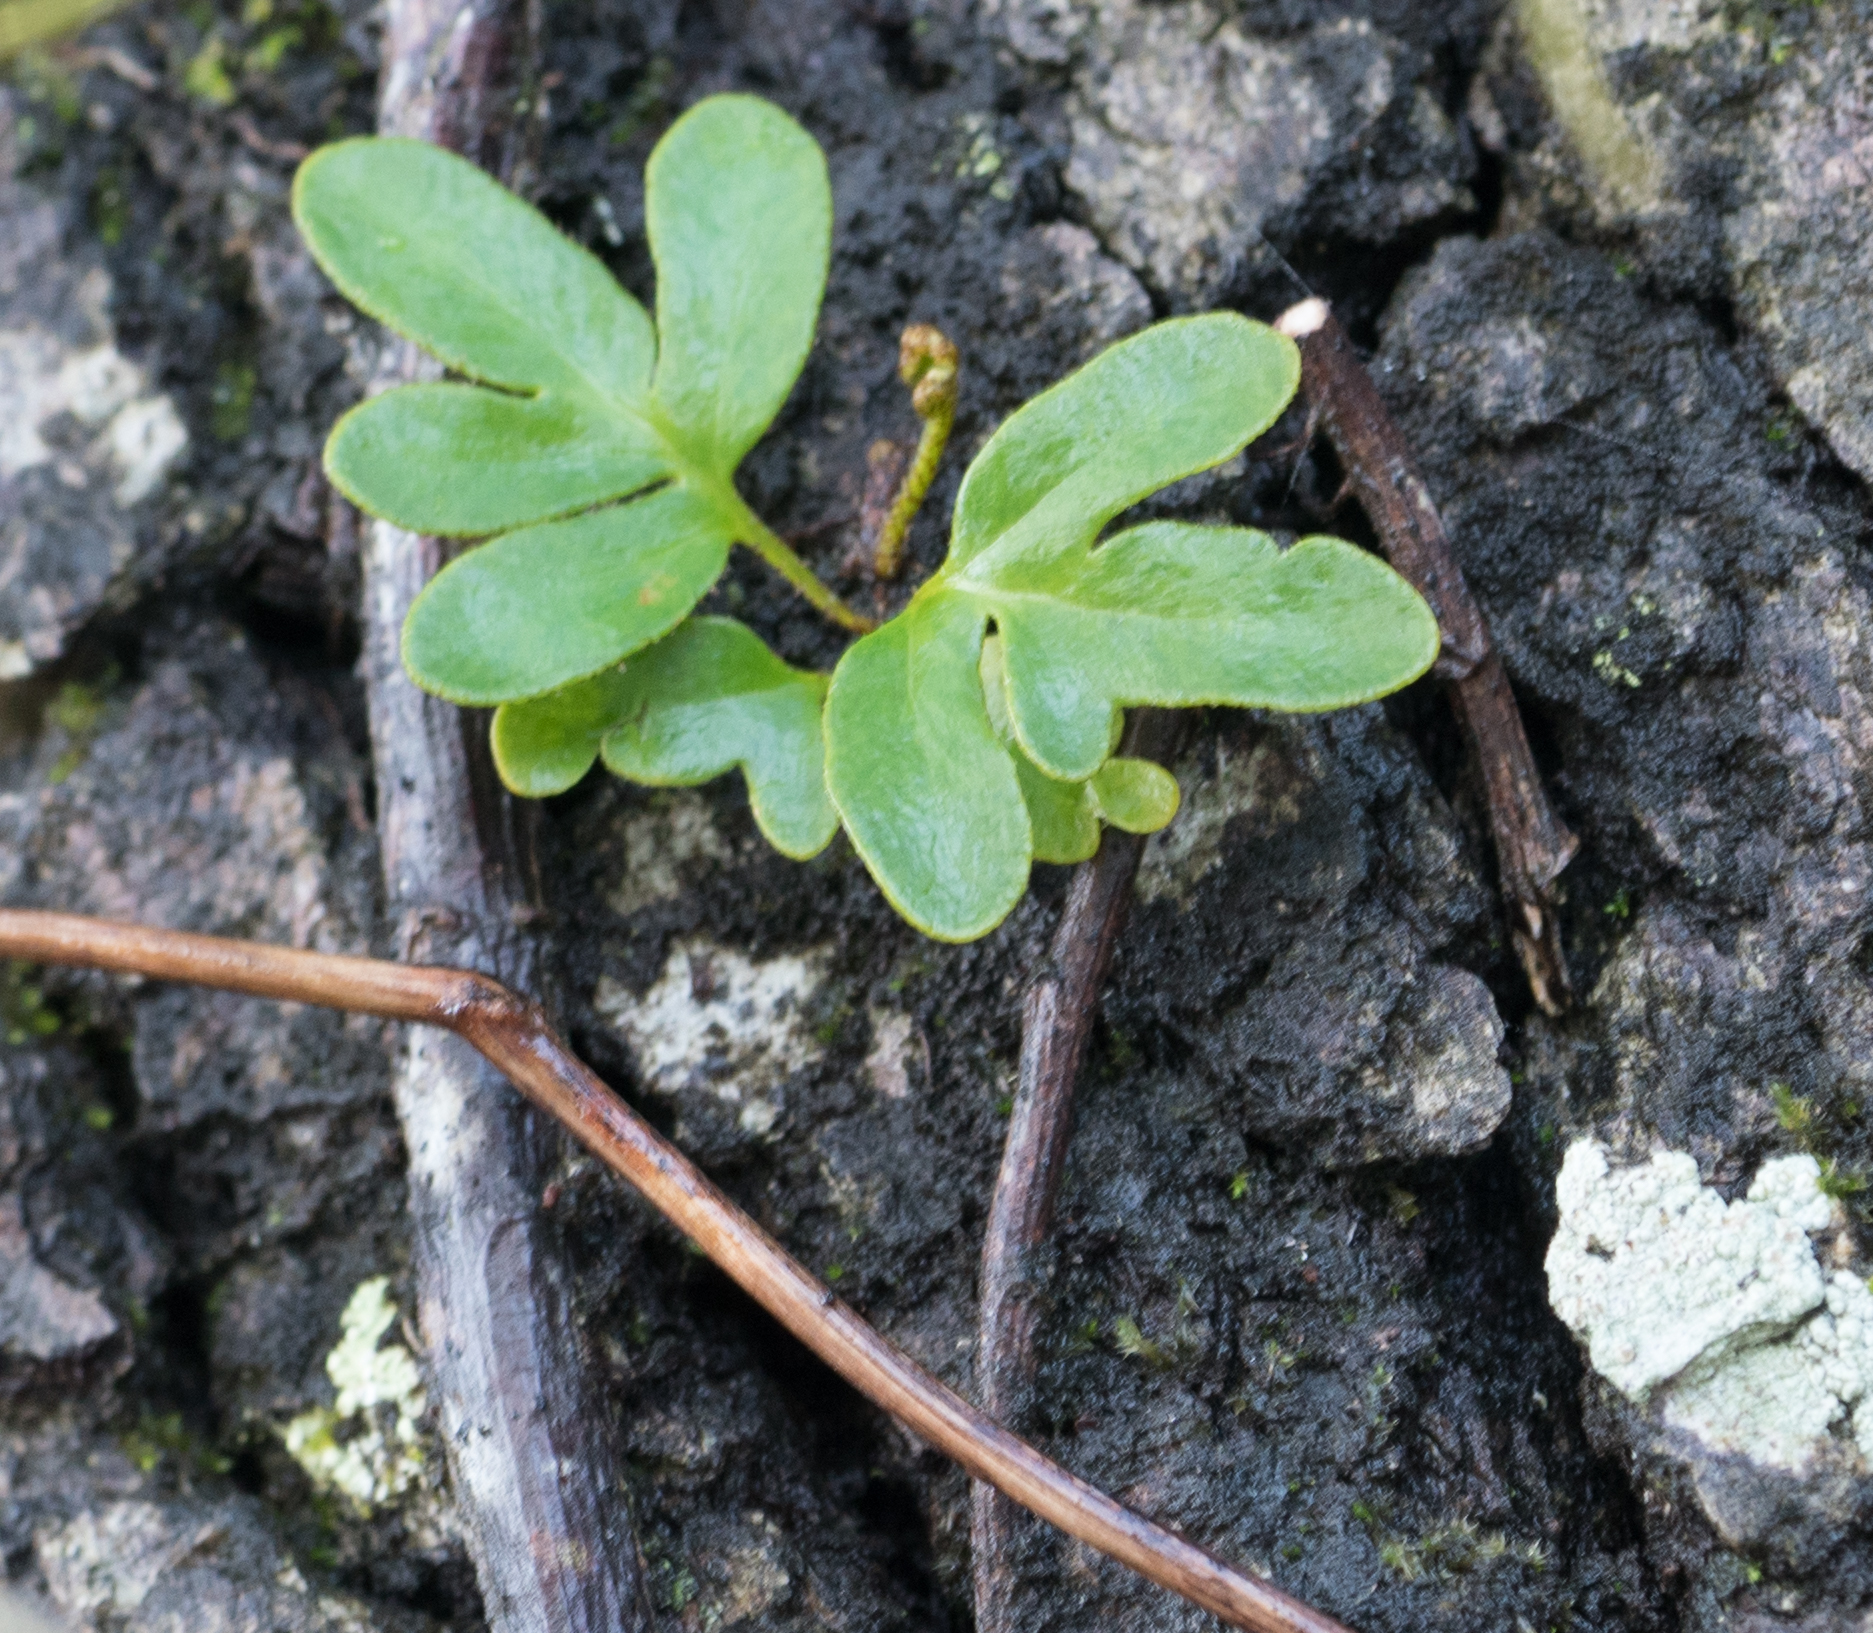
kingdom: Plantae
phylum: Tracheophyta
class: Polypodiopsida
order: Polypodiales
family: Polypodiaceae
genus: Pleopeltis
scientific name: Pleopeltis michauxiana
